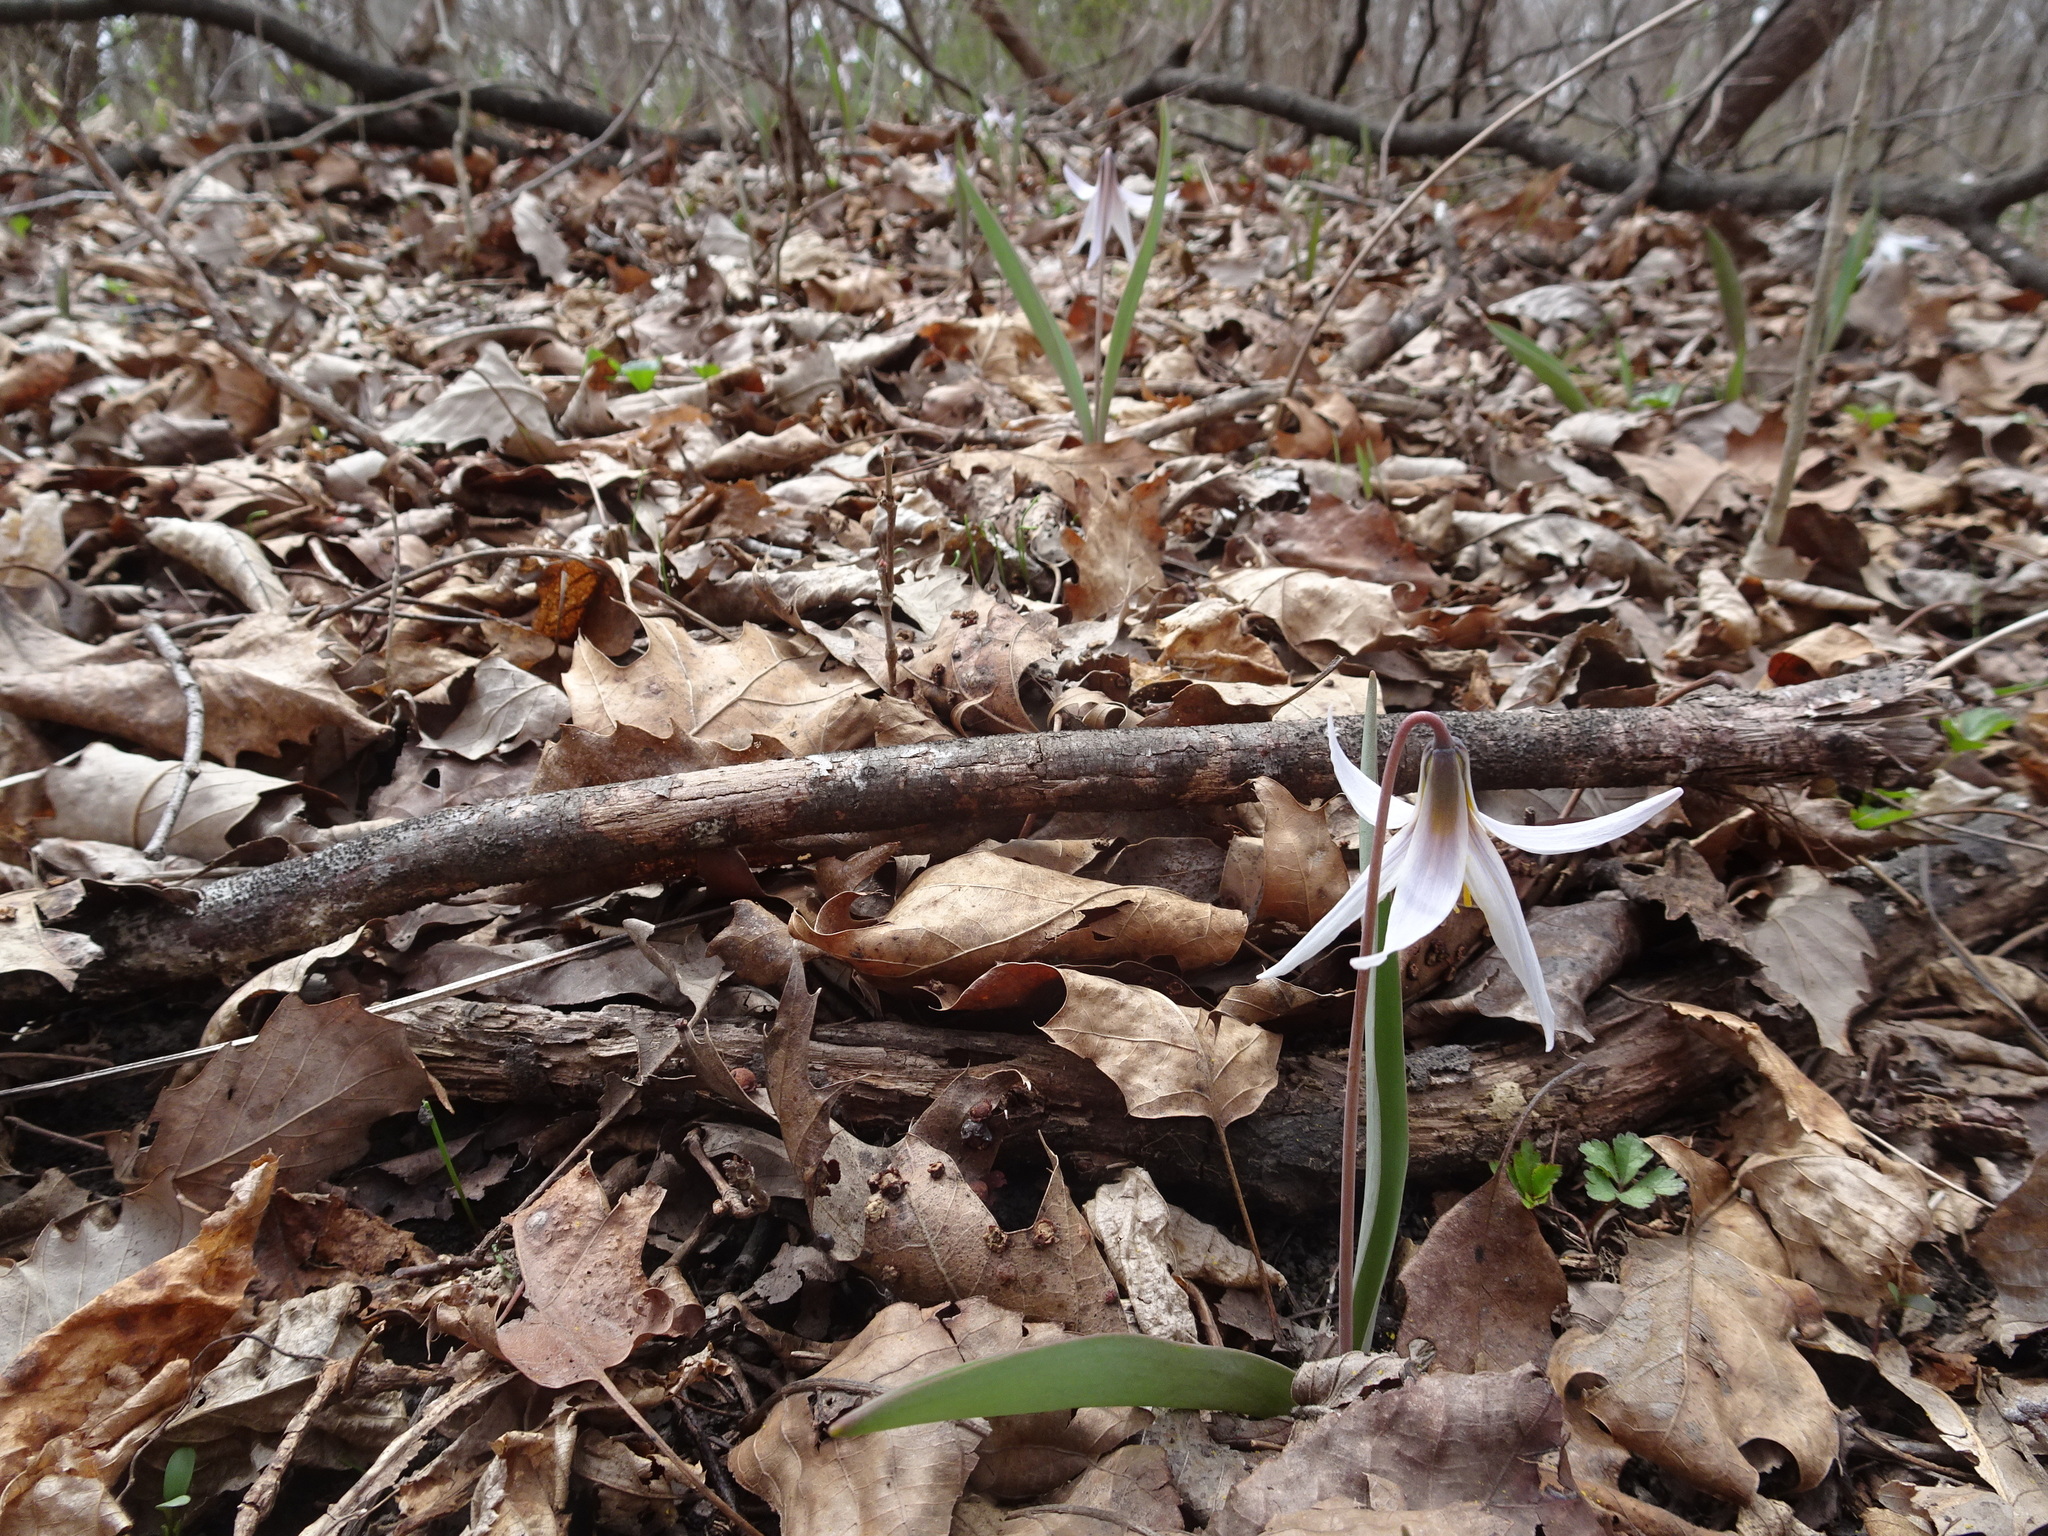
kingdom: Plantae
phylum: Tracheophyta
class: Liliopsida
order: Liliales
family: Liliaceae
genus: Erythronium
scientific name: Erythronium mesochoreum
